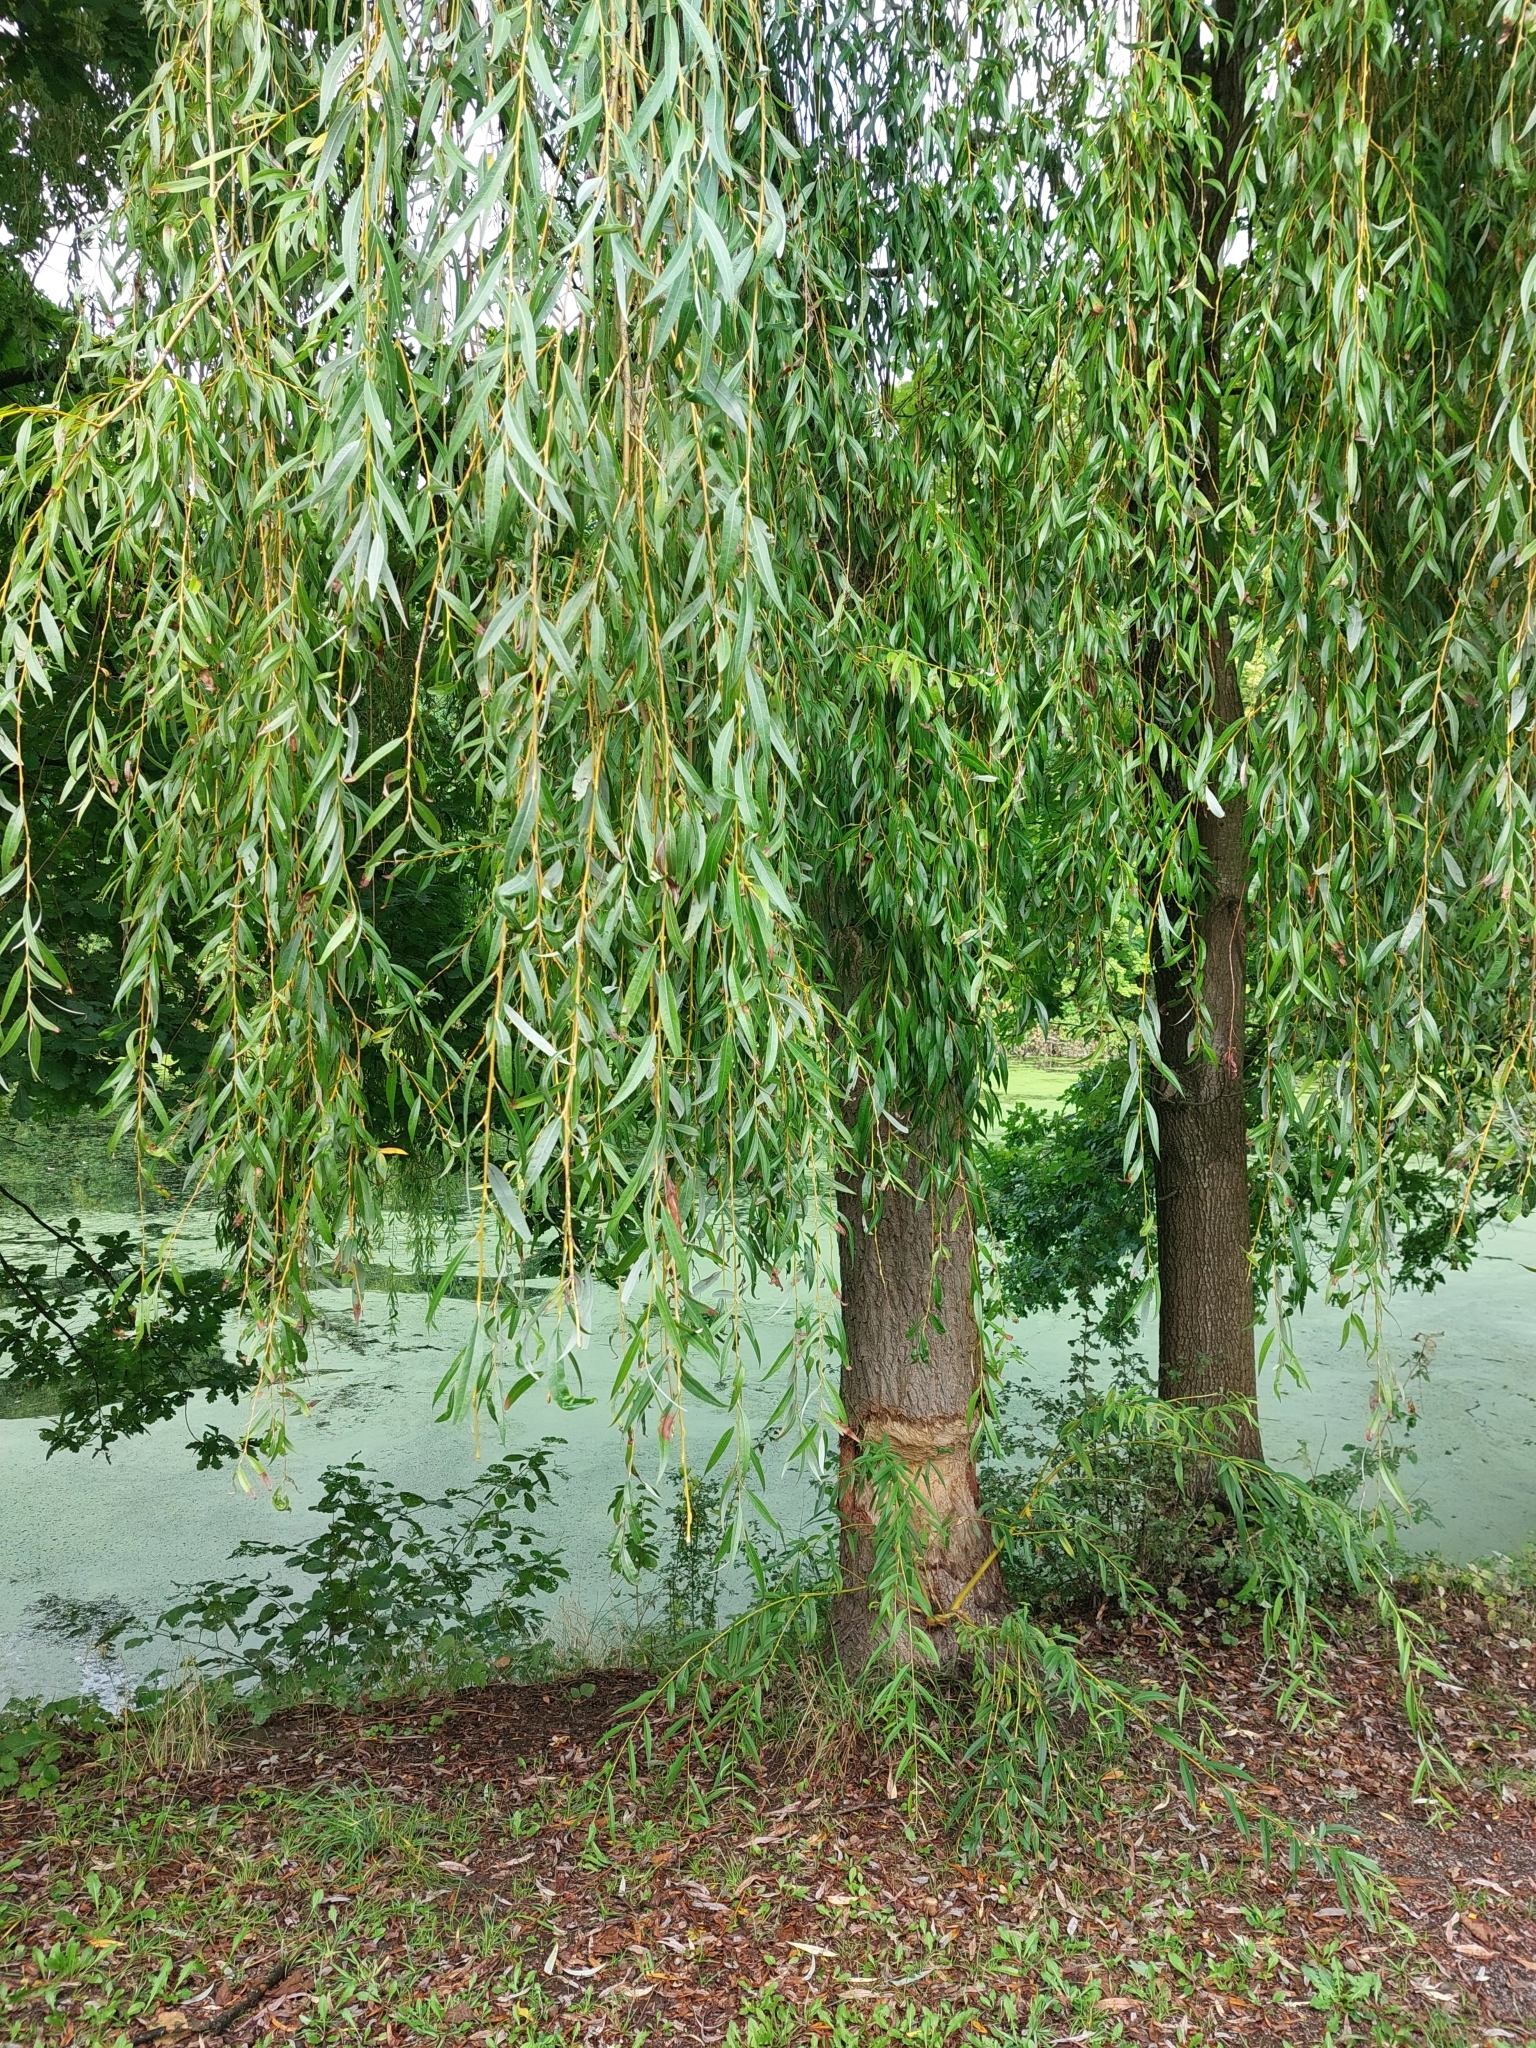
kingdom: Animalia
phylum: Chordata
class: Mammalia
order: Rodentia
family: Castoridae
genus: Castor
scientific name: Castor fiber
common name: Eurasian beaver
